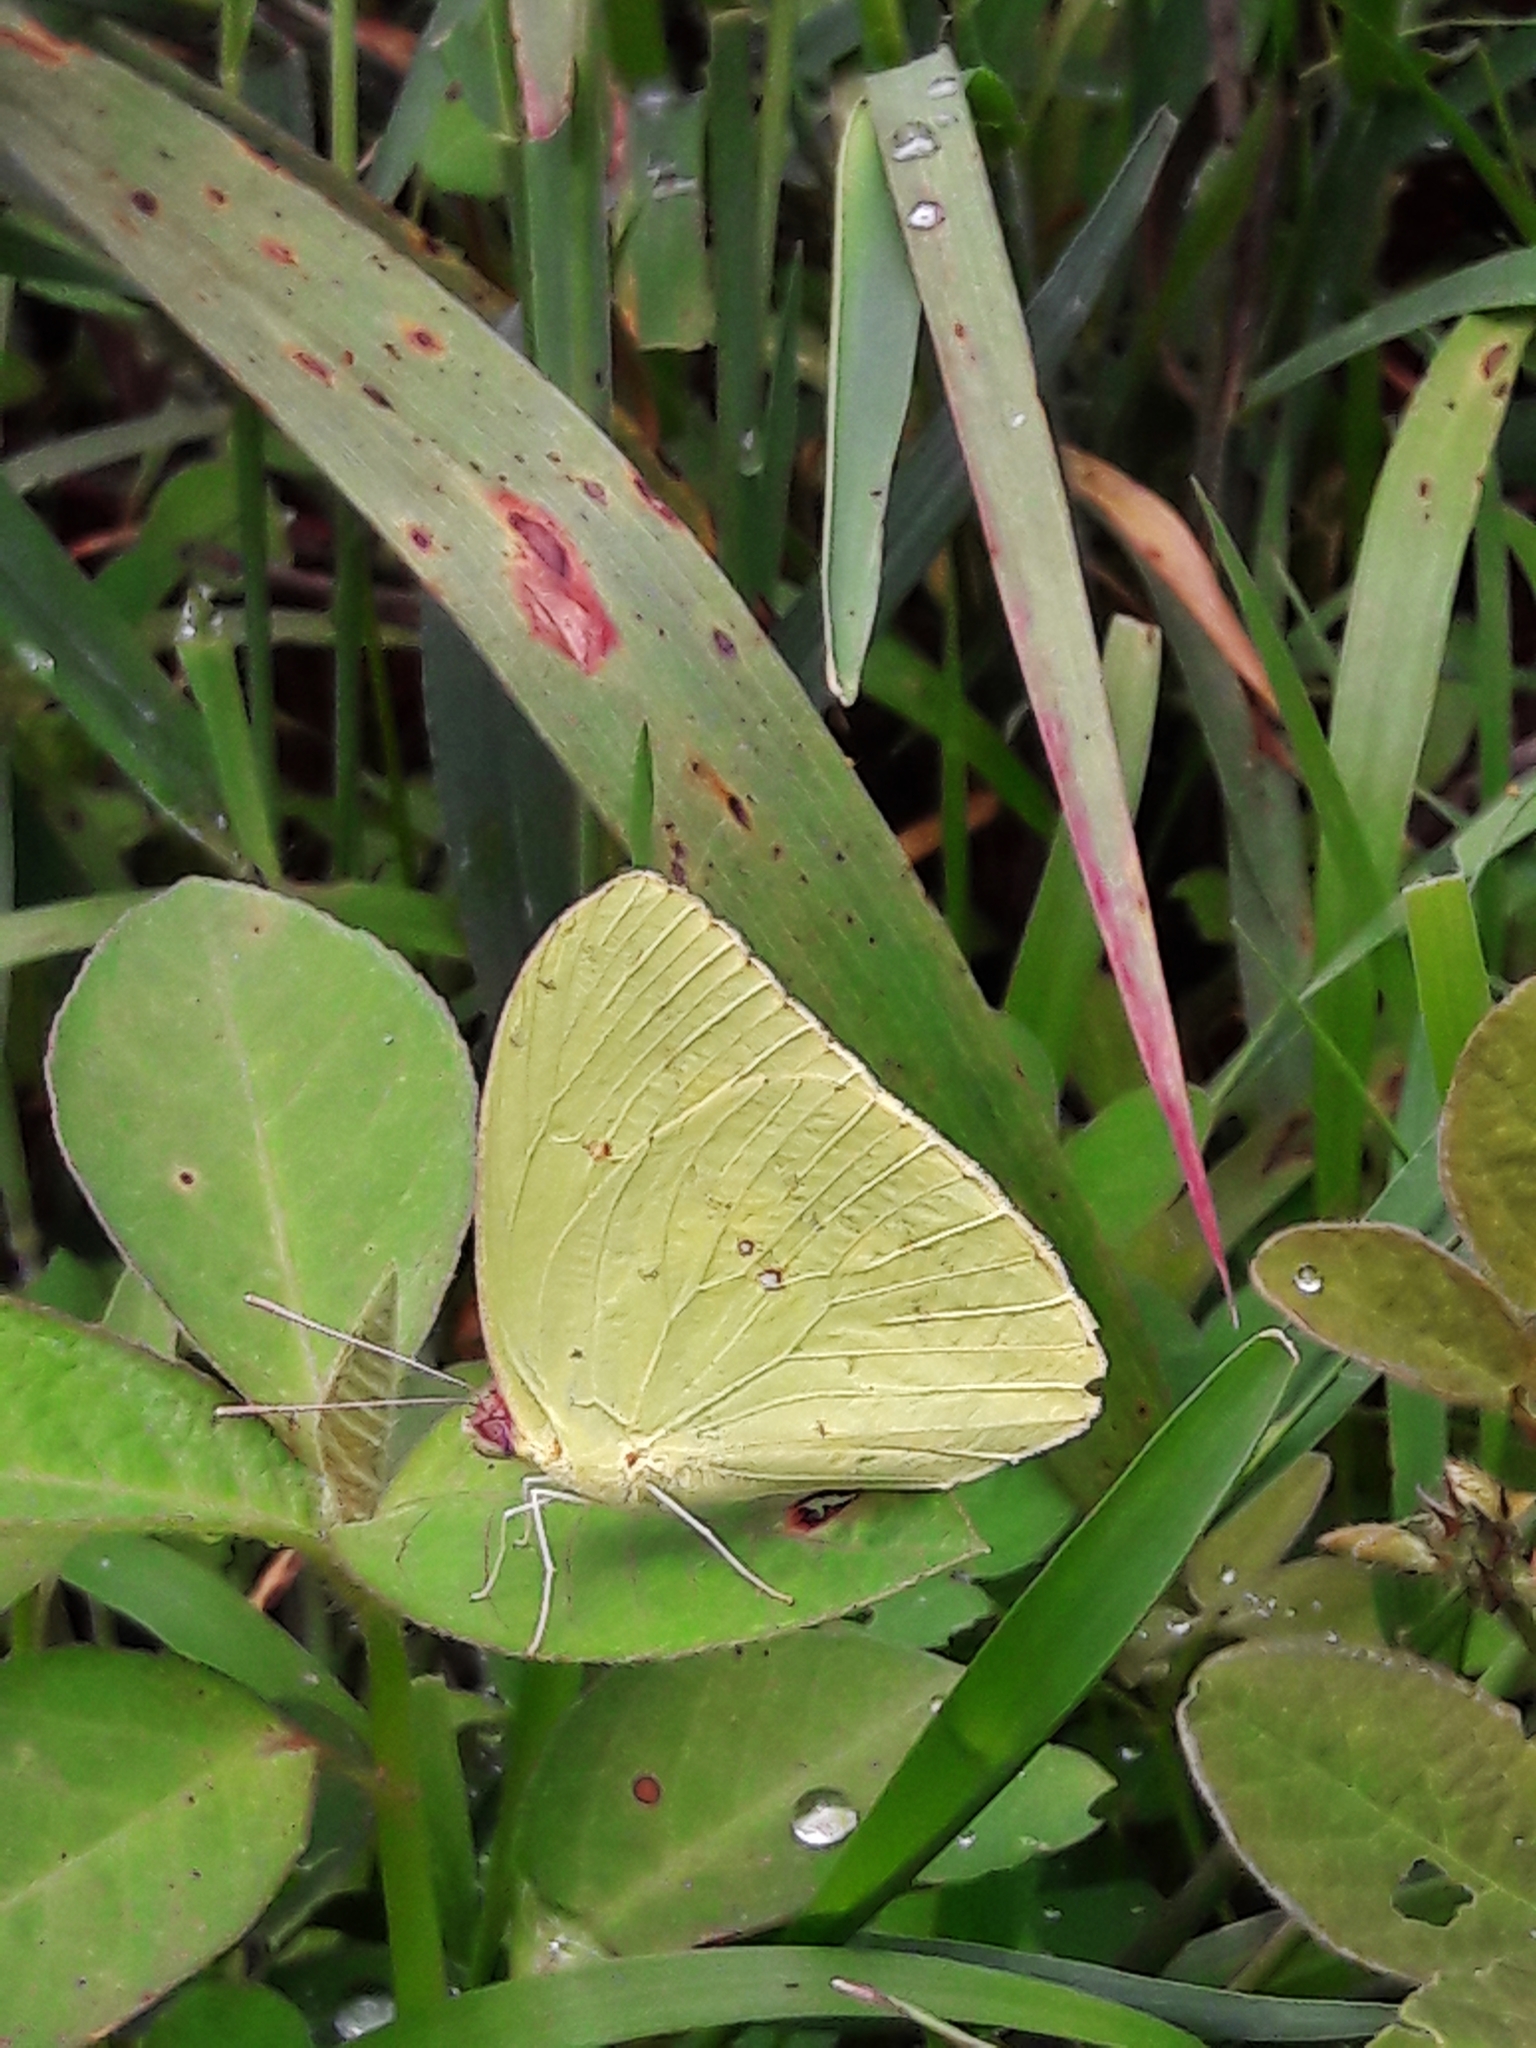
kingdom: Animalia
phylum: Arthropoda
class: Insecta
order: Lepidoptera
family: Pieridae
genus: Phoebis
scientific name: Phoebis marcellina
